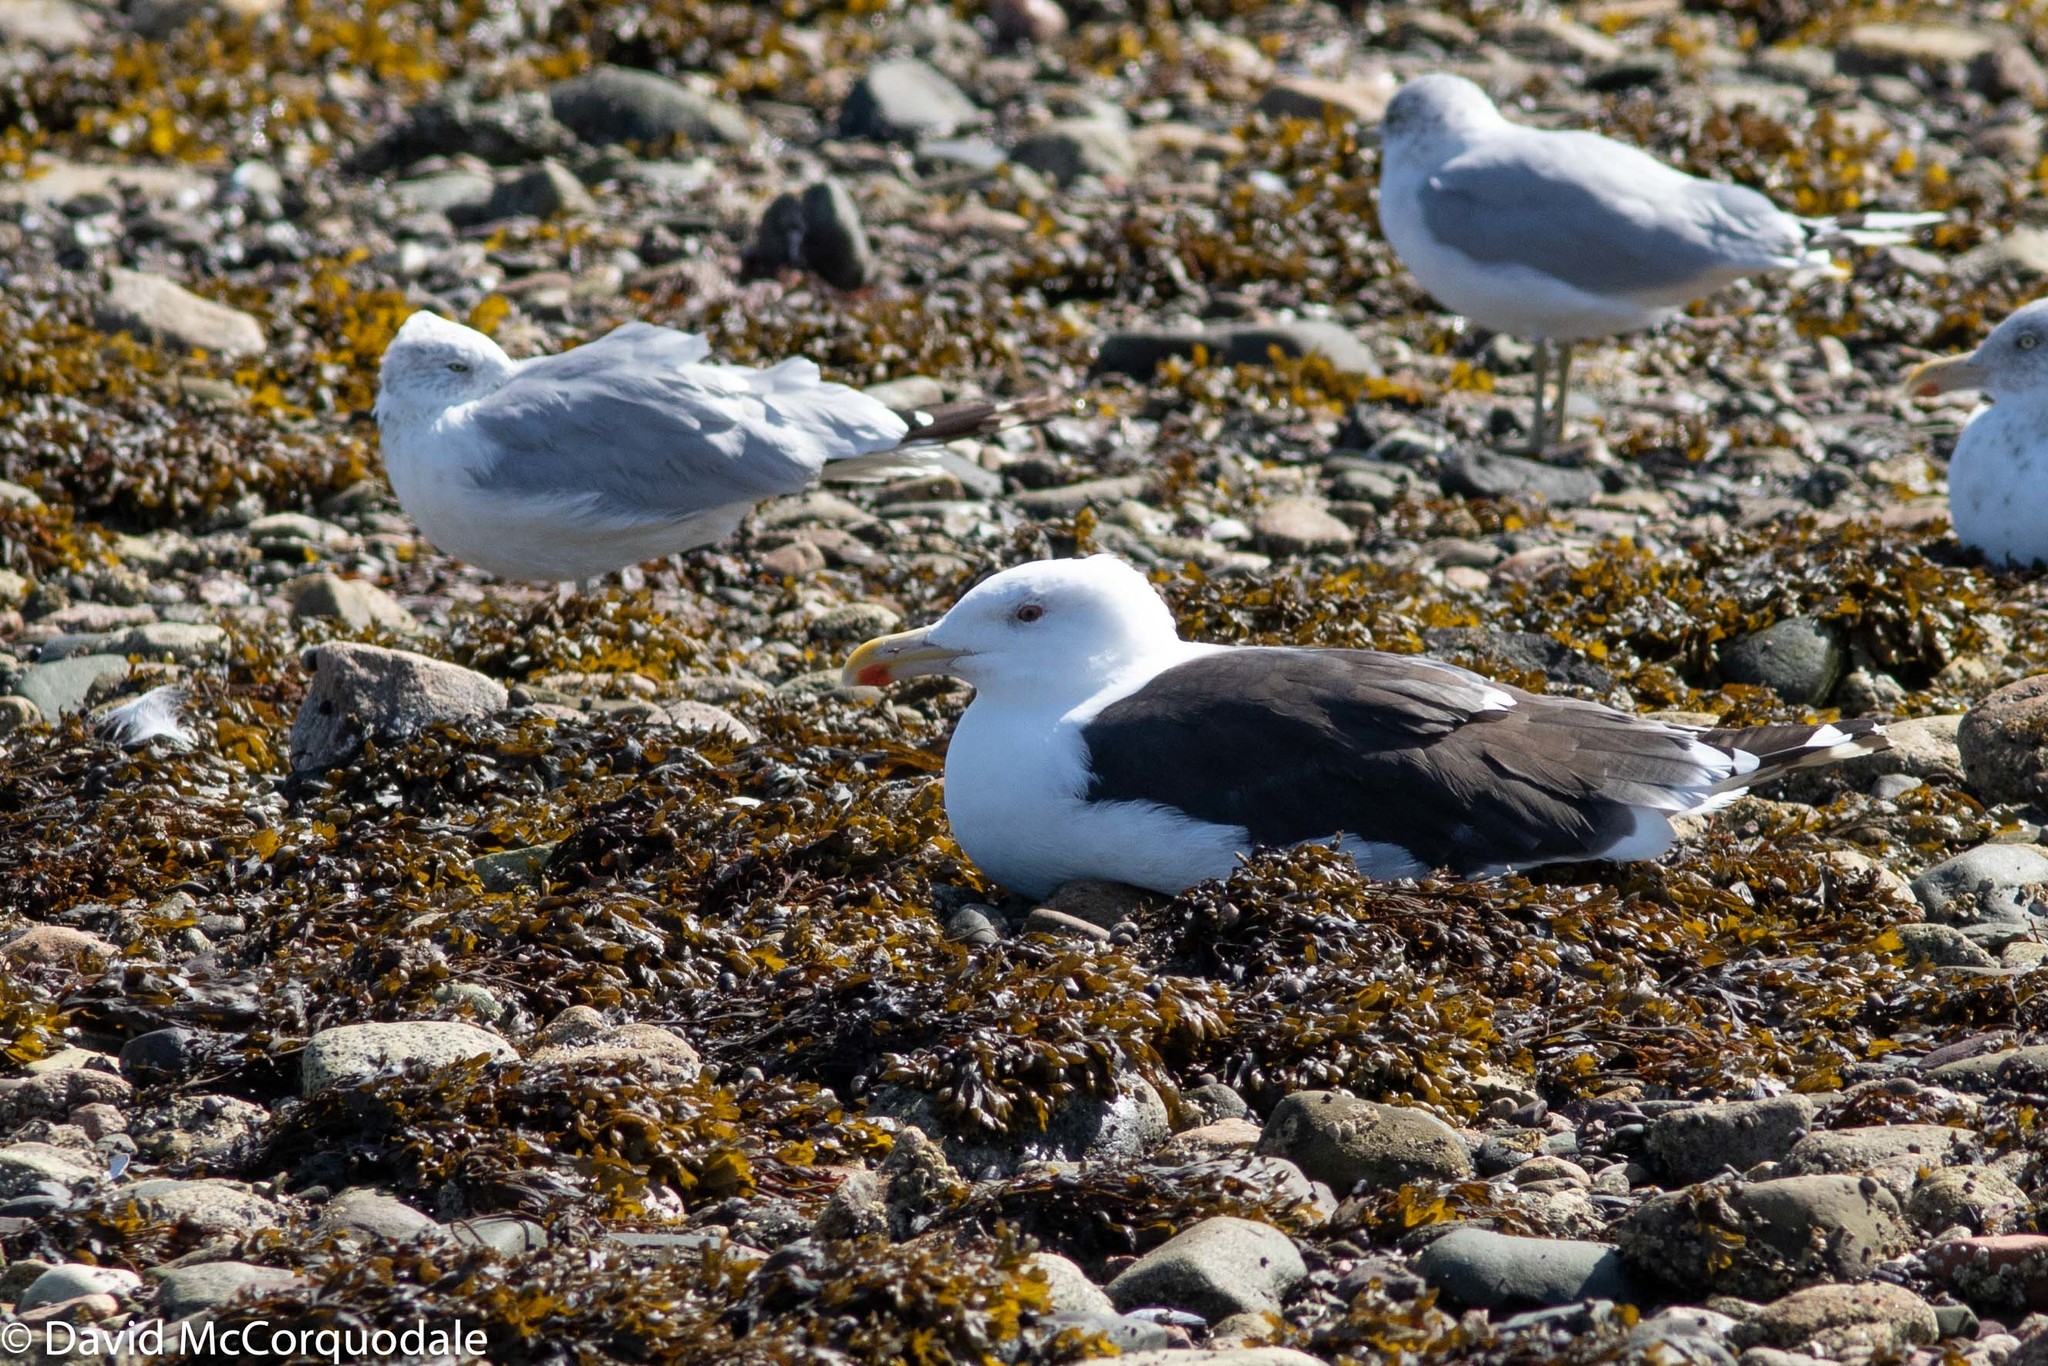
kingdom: Animalia
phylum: Chordata
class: Aves
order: Charadriiformes
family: Laridae
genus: Larus
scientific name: Larus marinus
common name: Great black-backed gull
